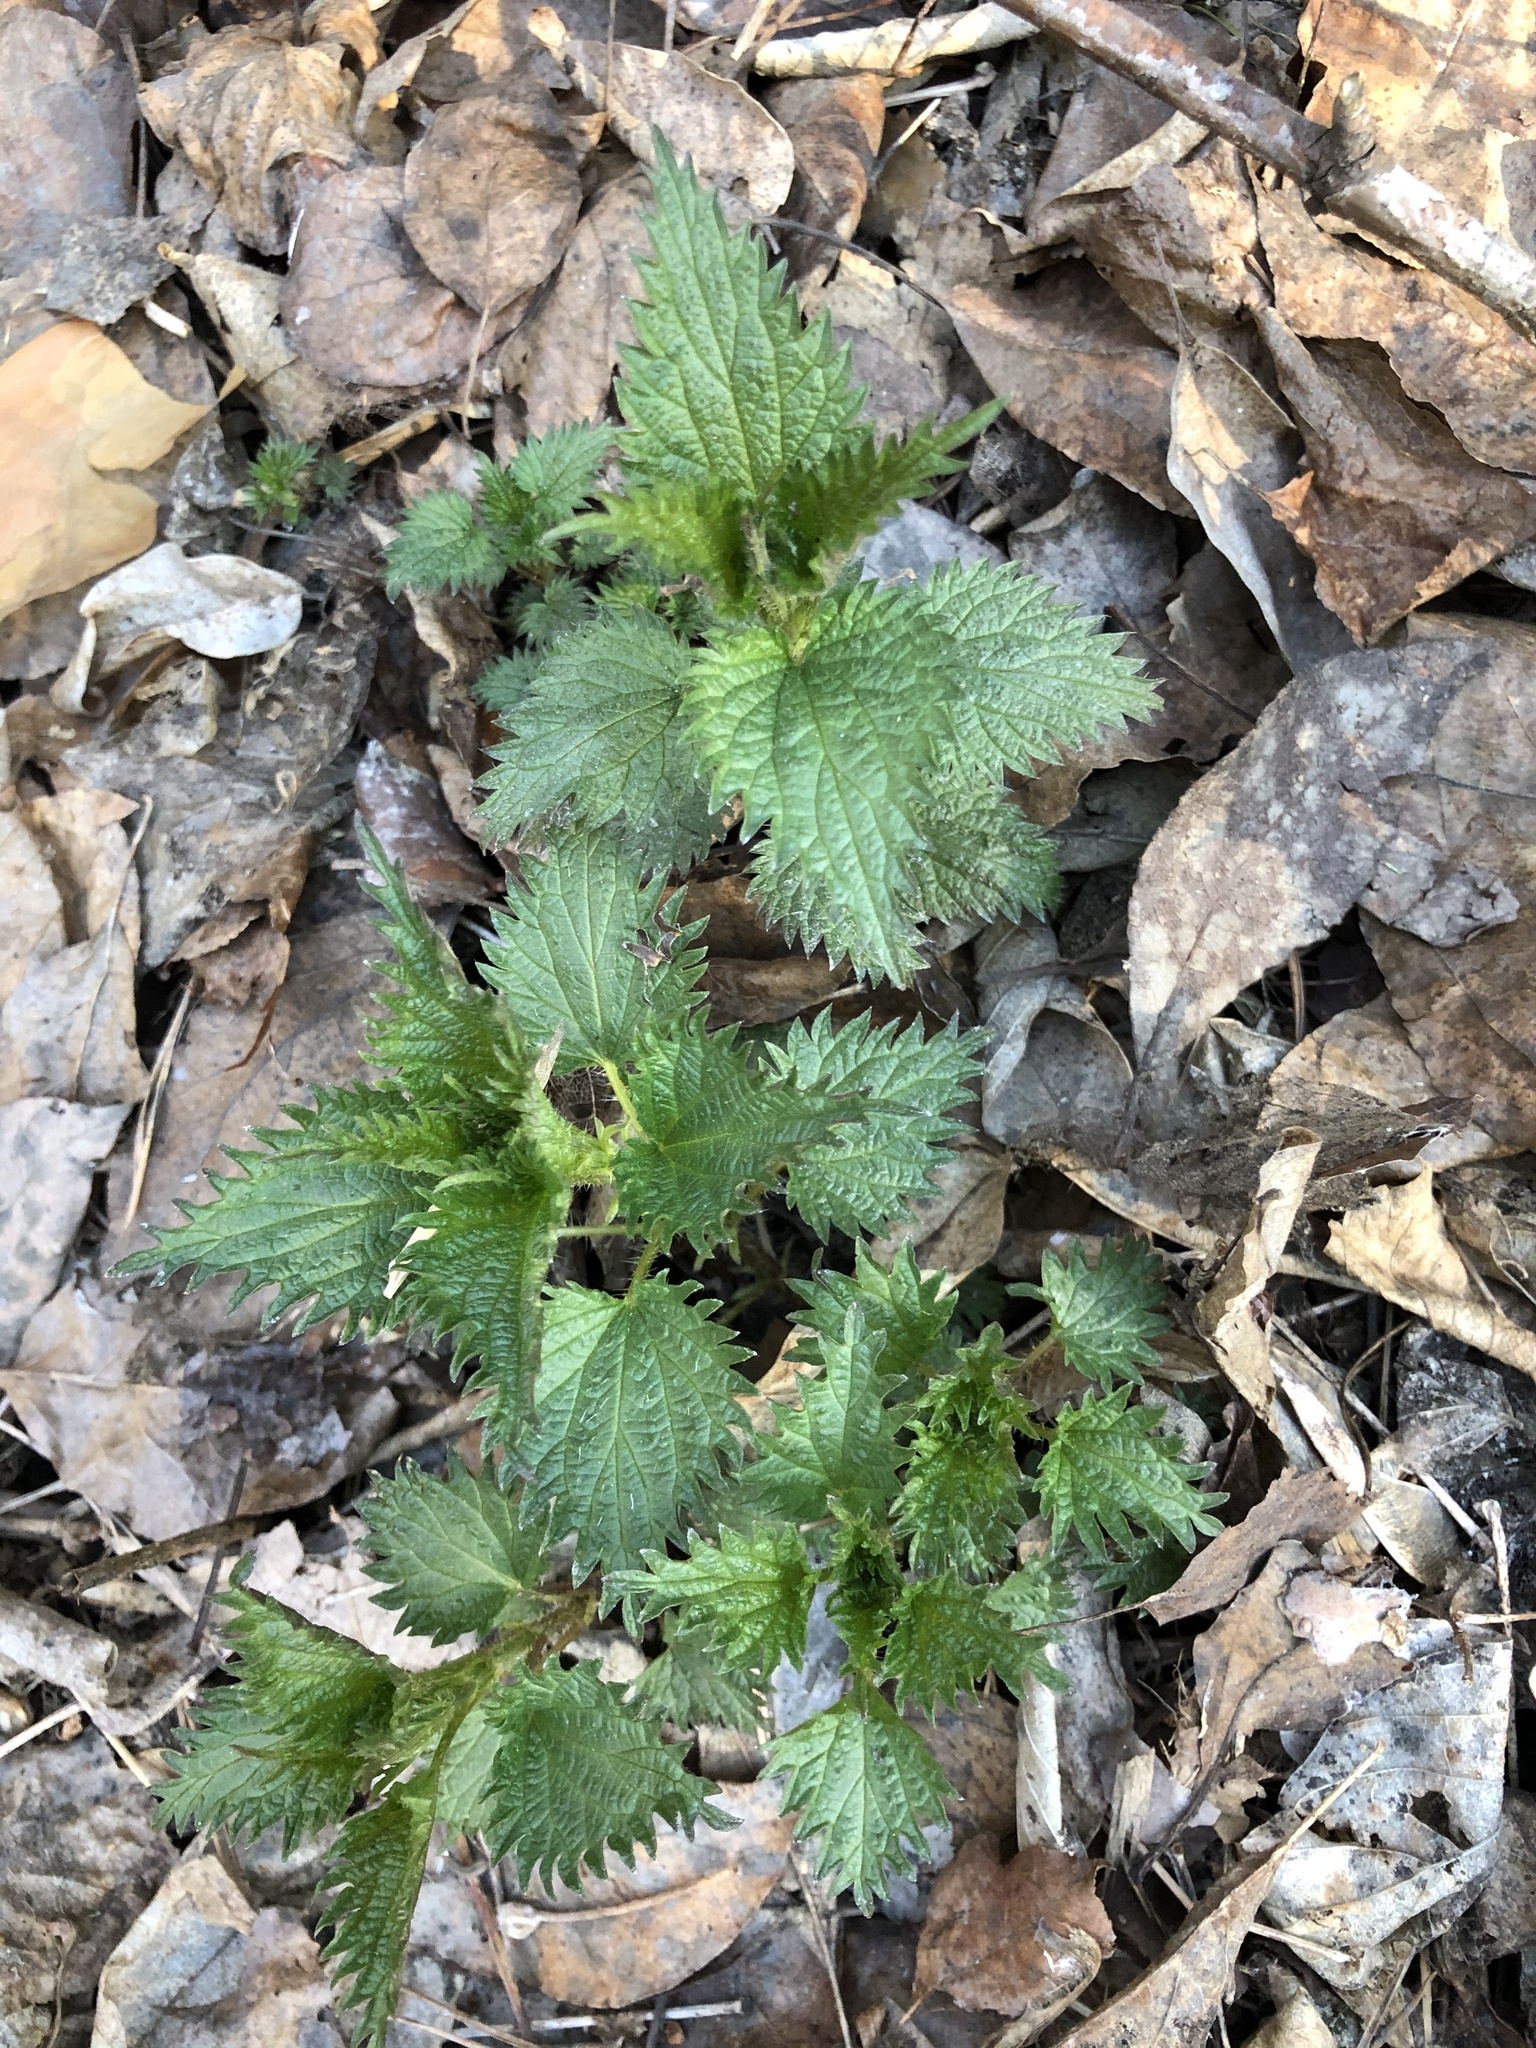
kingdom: Plantae
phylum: Tracheophyta
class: Magnoliopsida
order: Rosales
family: Urticaceae
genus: Urtica
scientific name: Urtica dioica
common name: Common nettle
